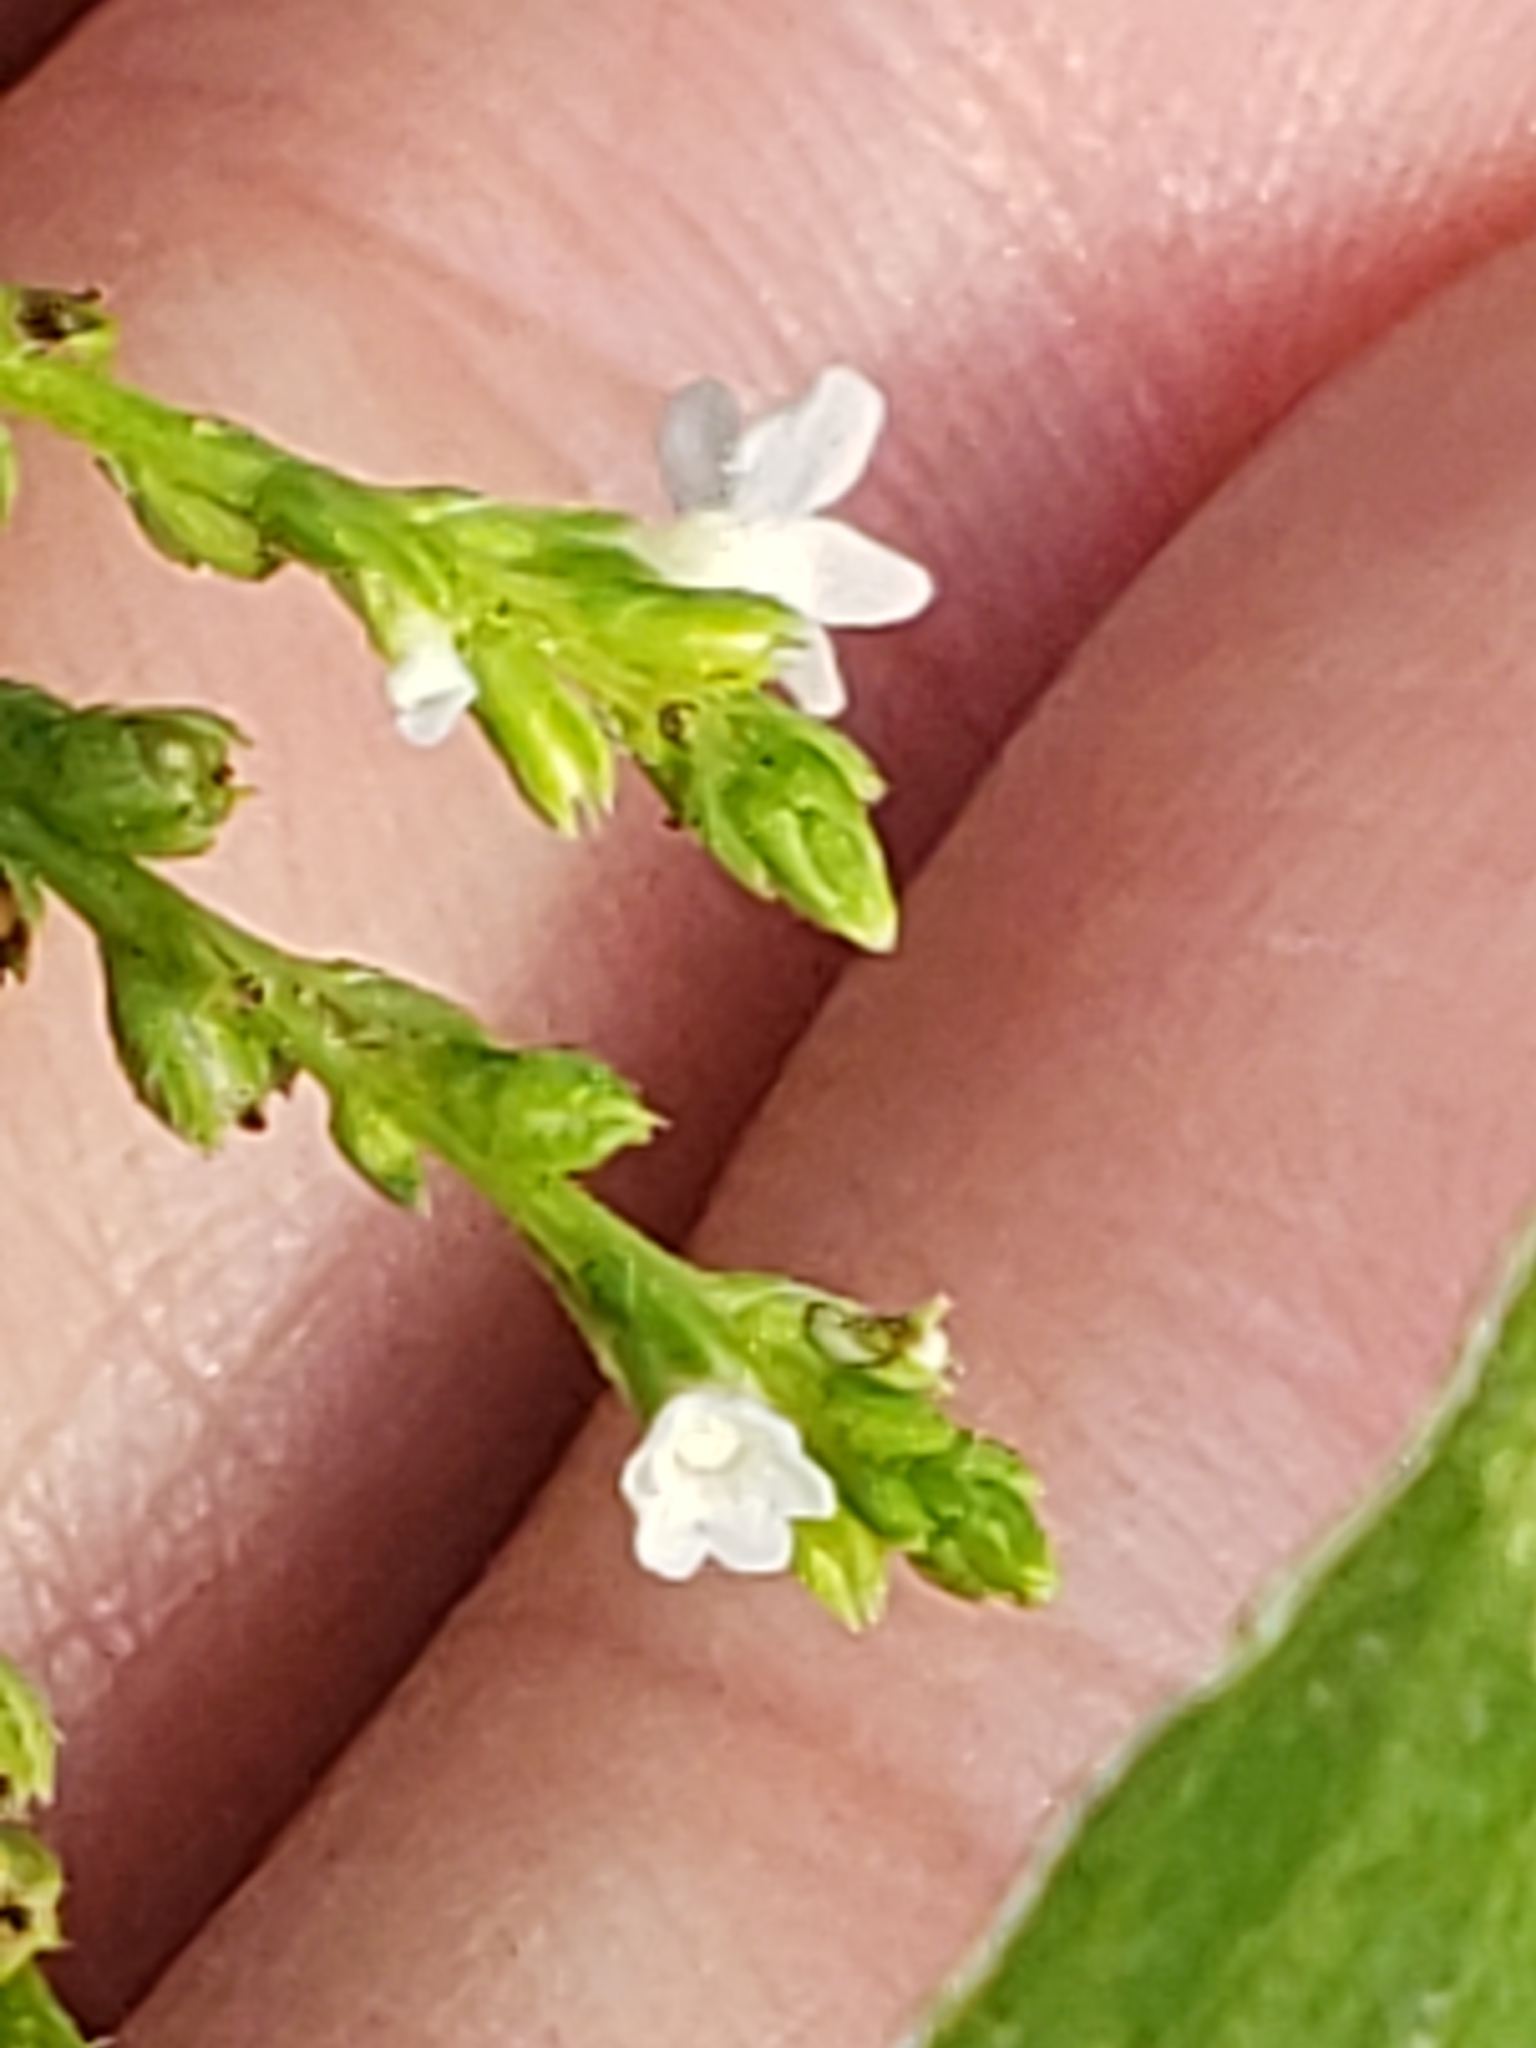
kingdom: Plantae
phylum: Tracheophyta
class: Magnoliopsida
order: Lamiales
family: Verbenaceae
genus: Verbena
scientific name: Verbena urticifolia
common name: Nettle-leaved vervain
